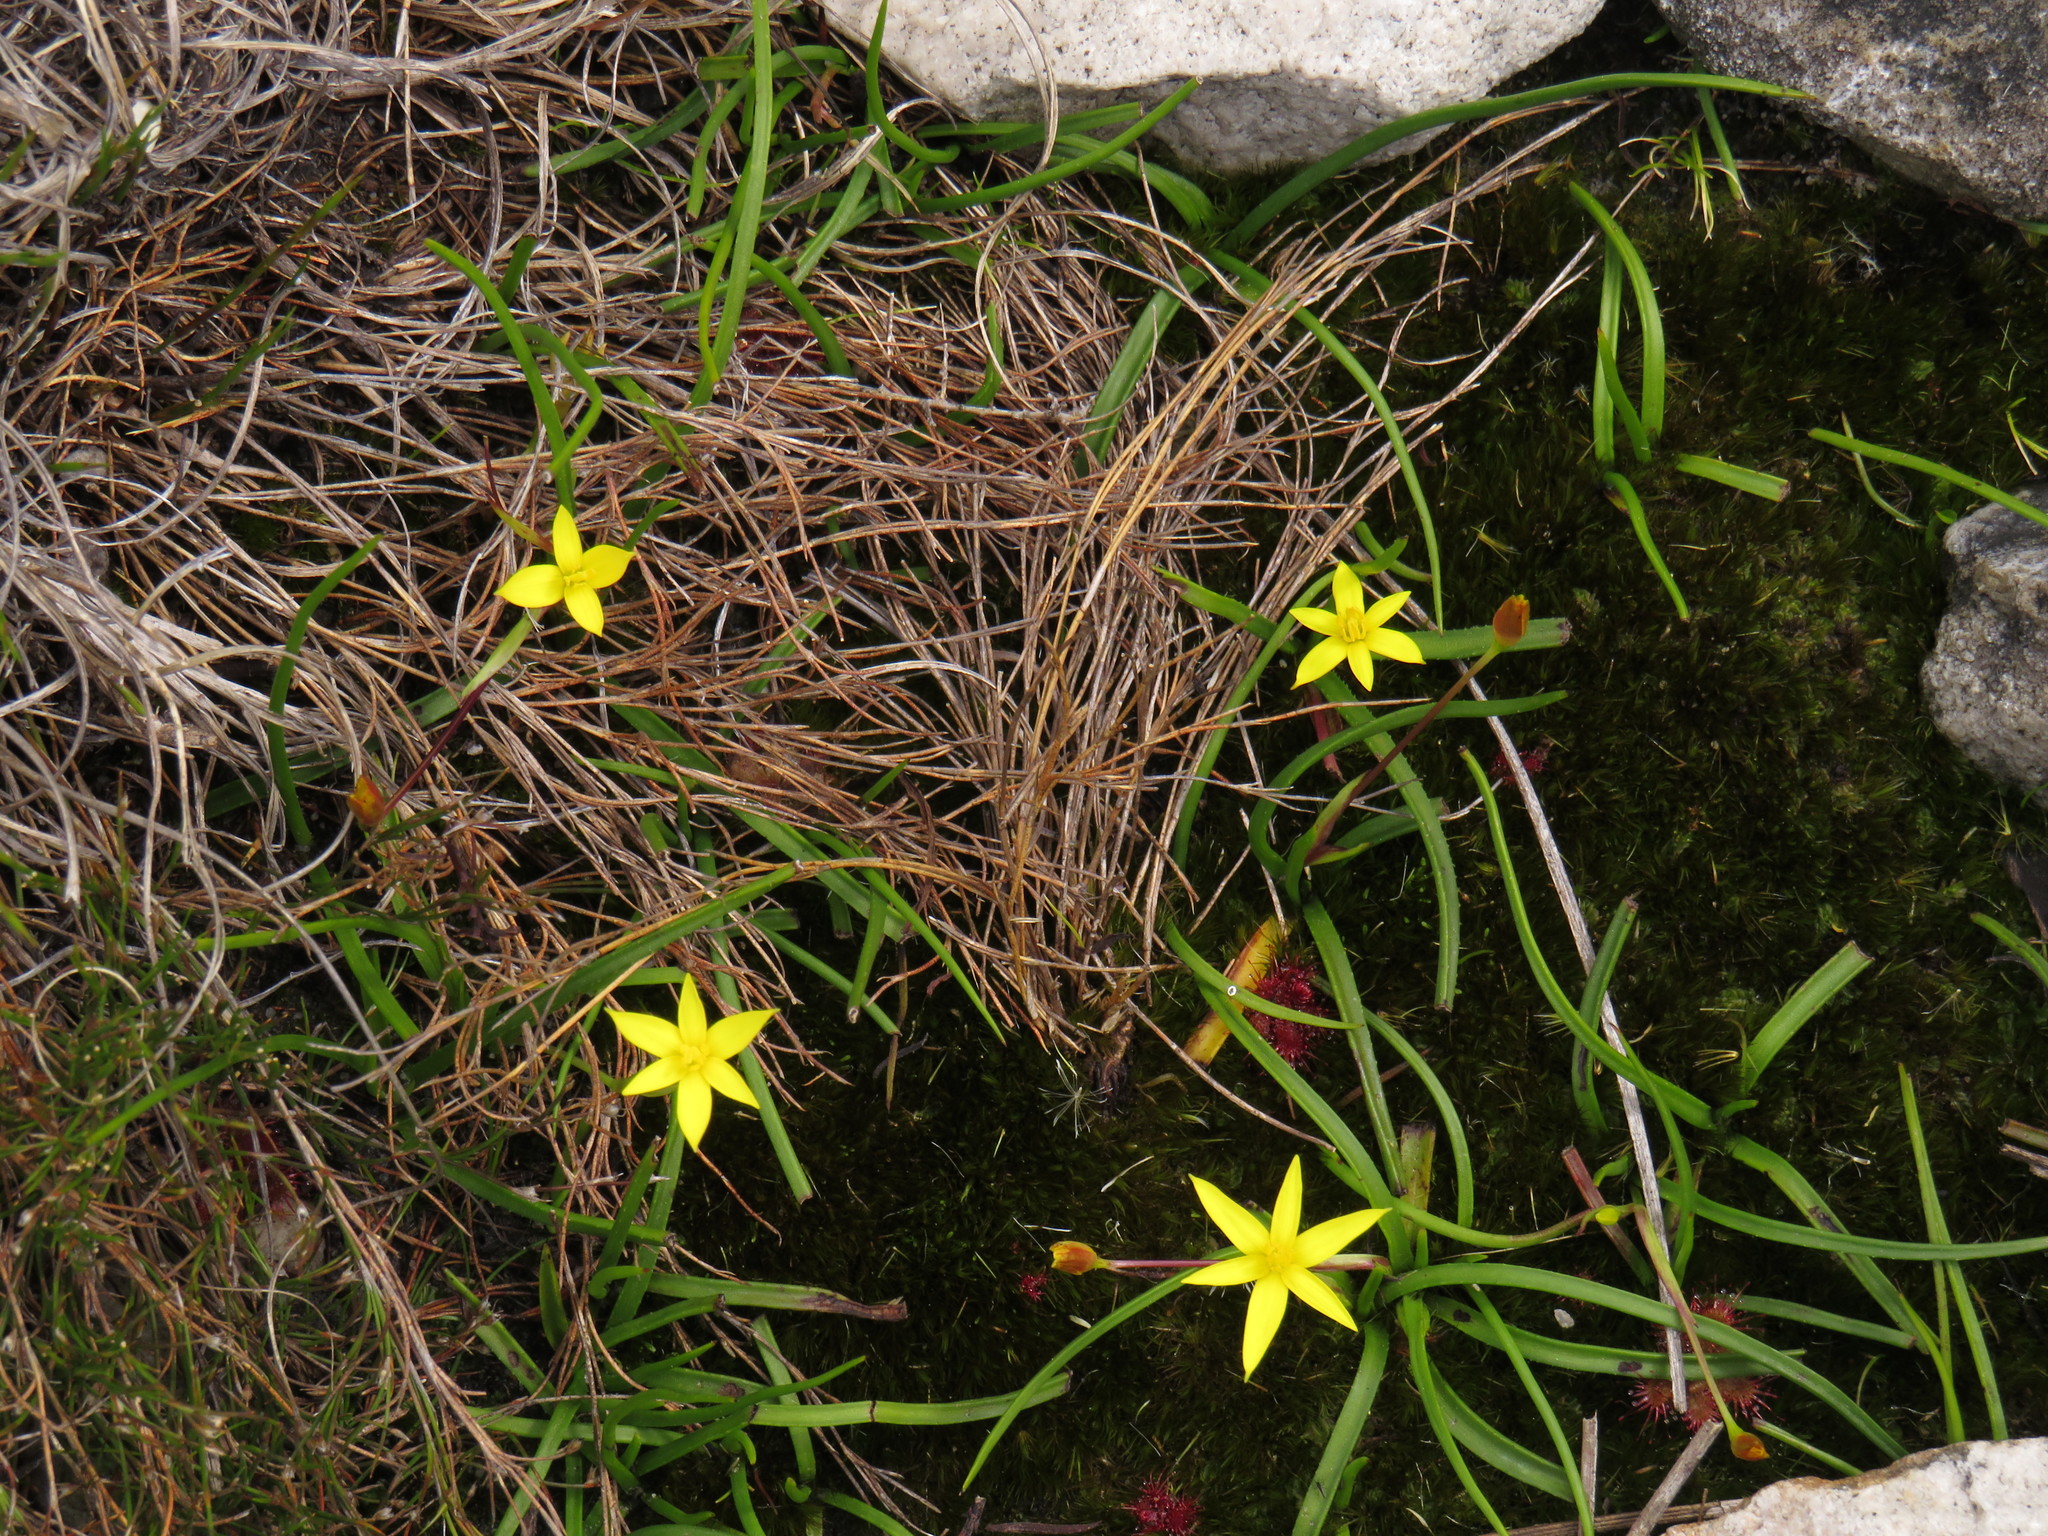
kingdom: Plantae
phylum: Tracheophyta
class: Liliopsida
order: Asparagales
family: Hypoxidaceae
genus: Pauridia
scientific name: Pauridia monticola
